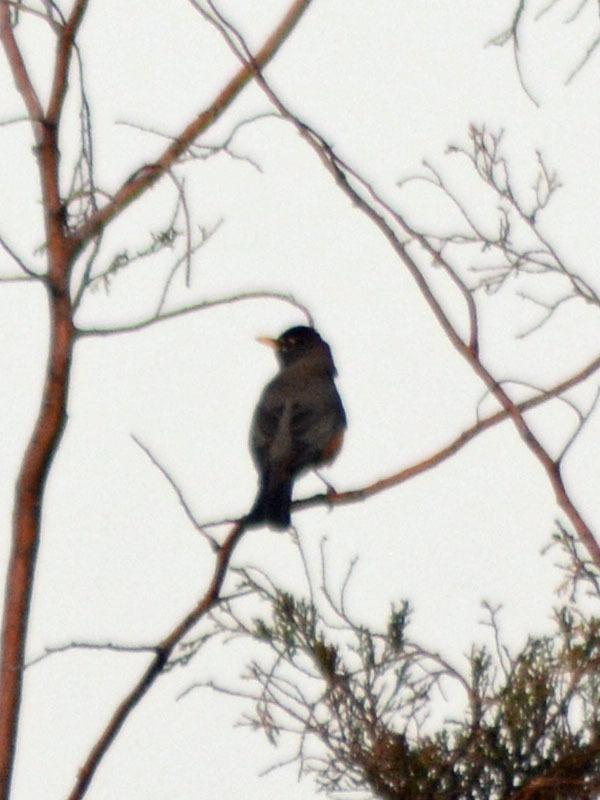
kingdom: Animalia
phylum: Chordata
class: Aves
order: Passeriformes
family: Turdidae
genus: Turdus
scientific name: Turdus migratorius
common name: American robin
